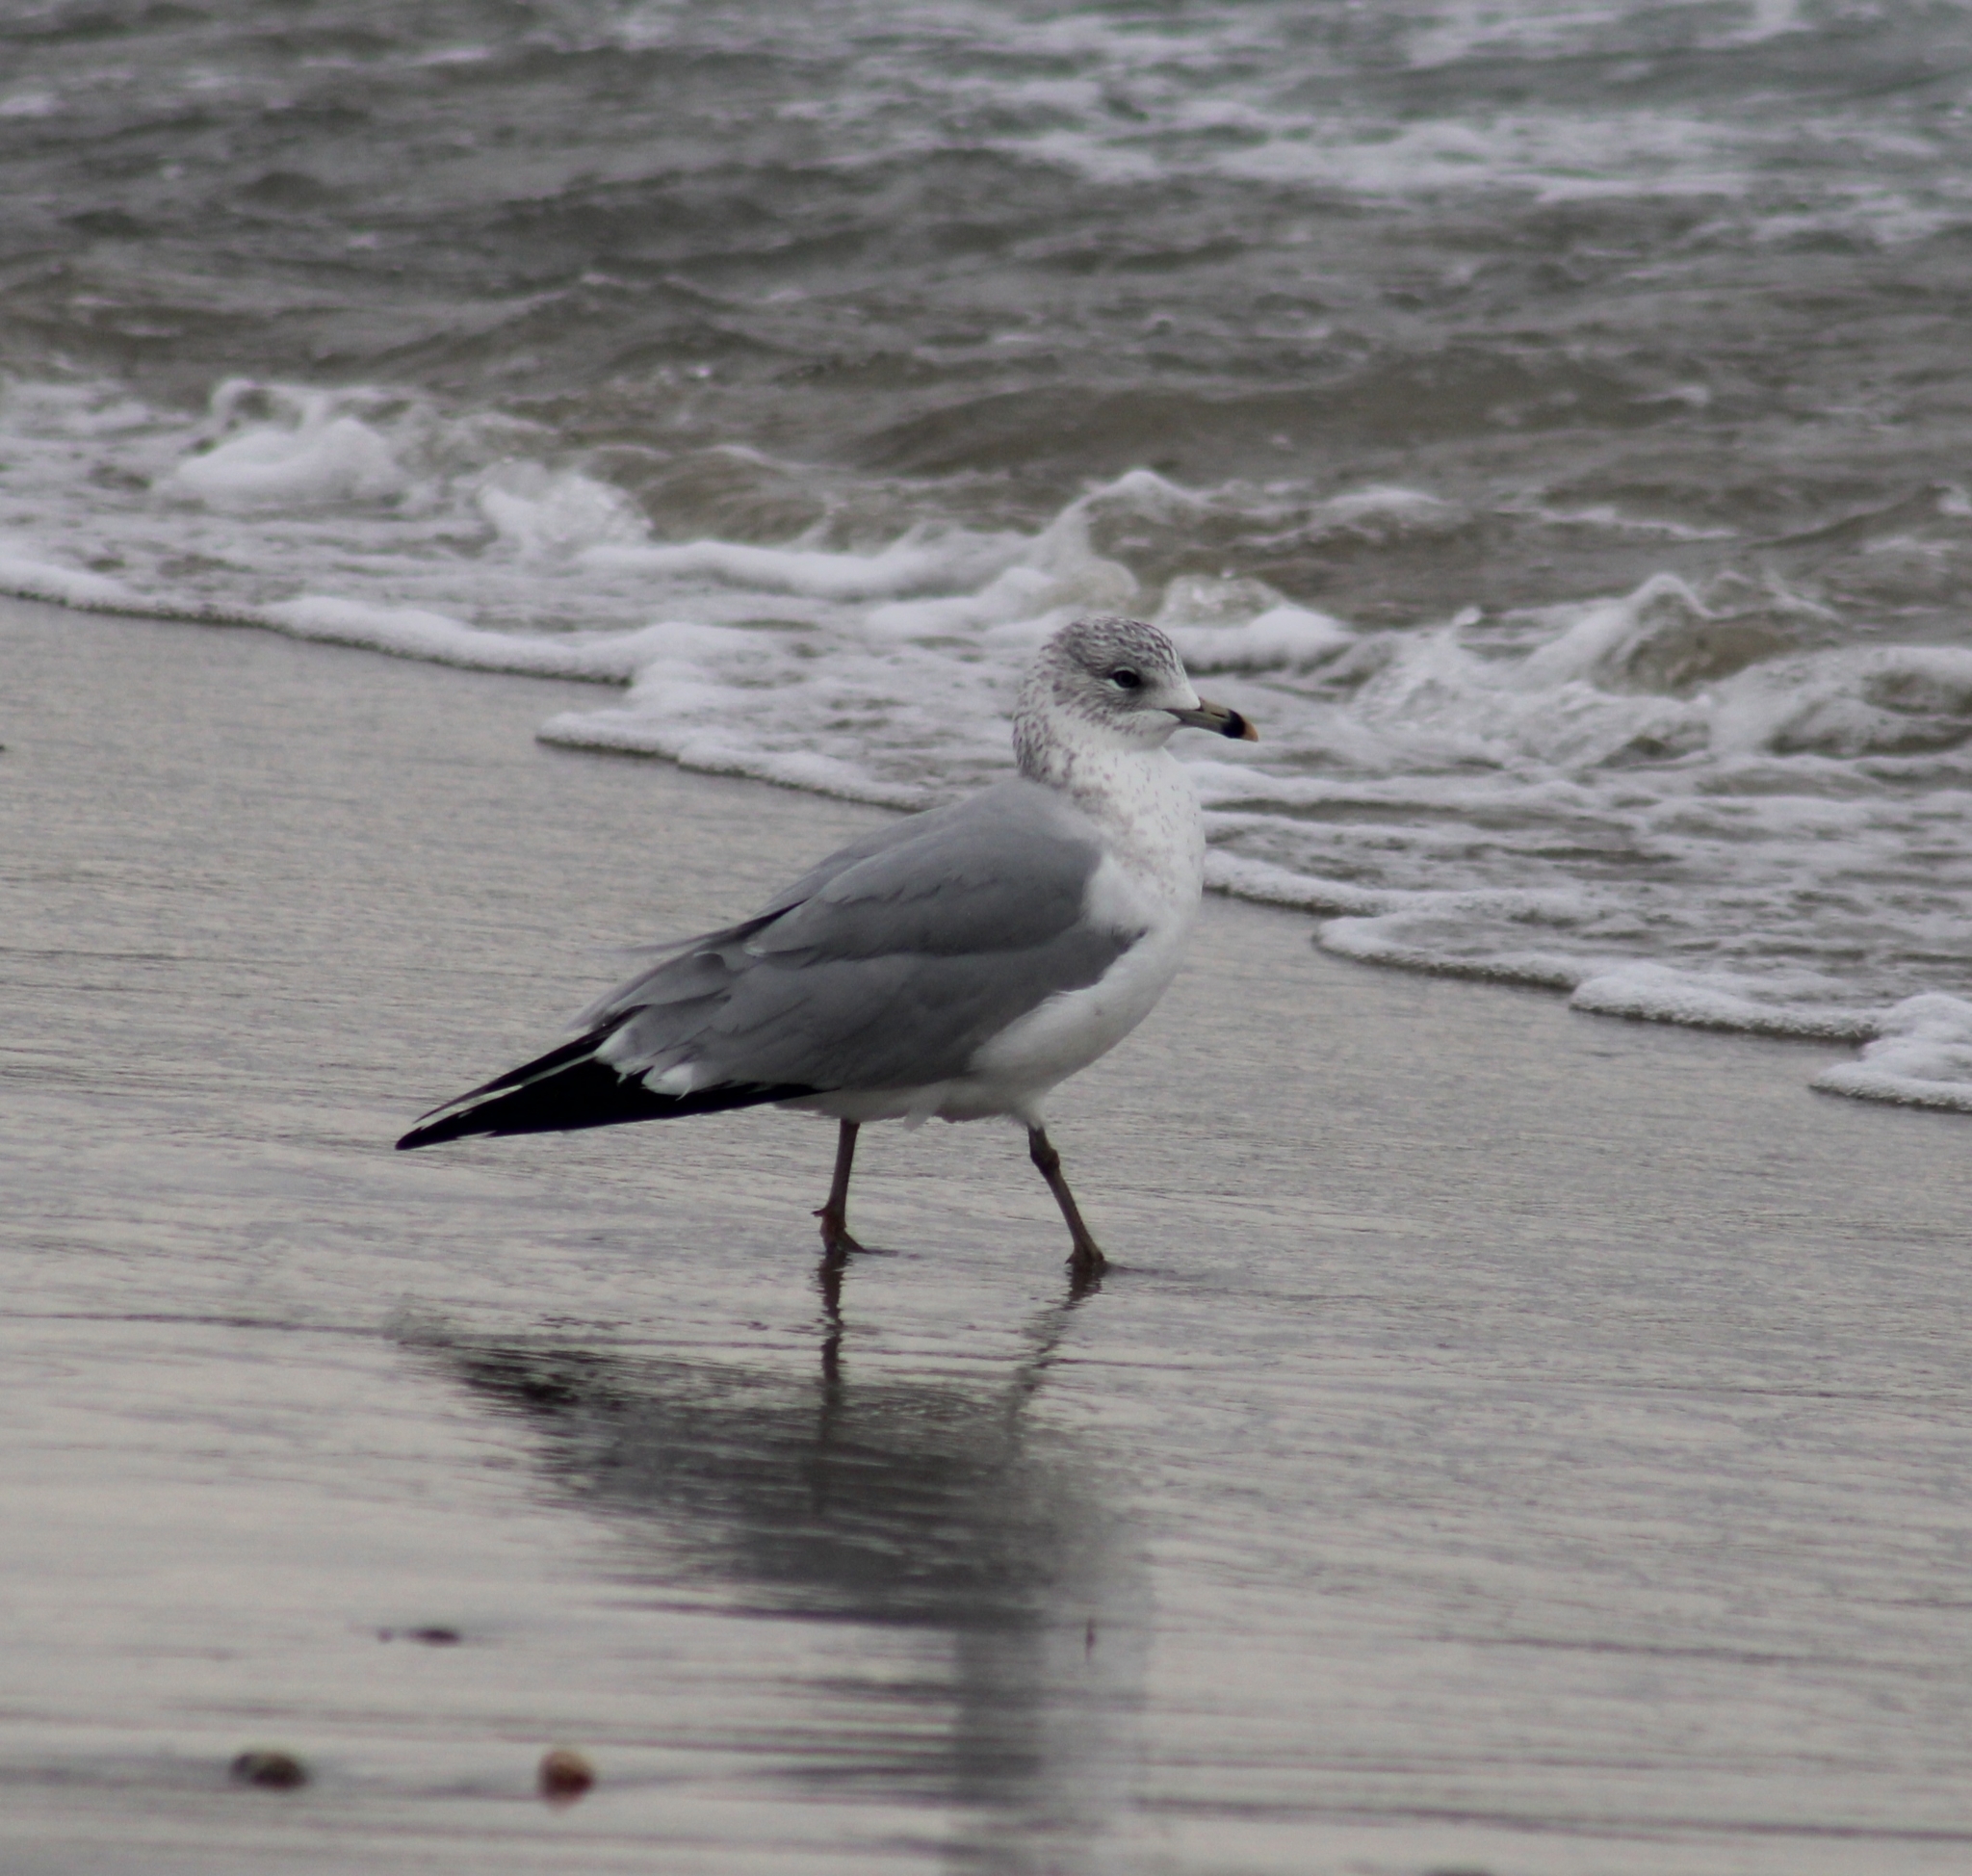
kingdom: Animalia
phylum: Chordata
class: Aves
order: Charadriiformes
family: Laridae
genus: Larus
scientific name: Larus delawarensis
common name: Ring-billed gull
